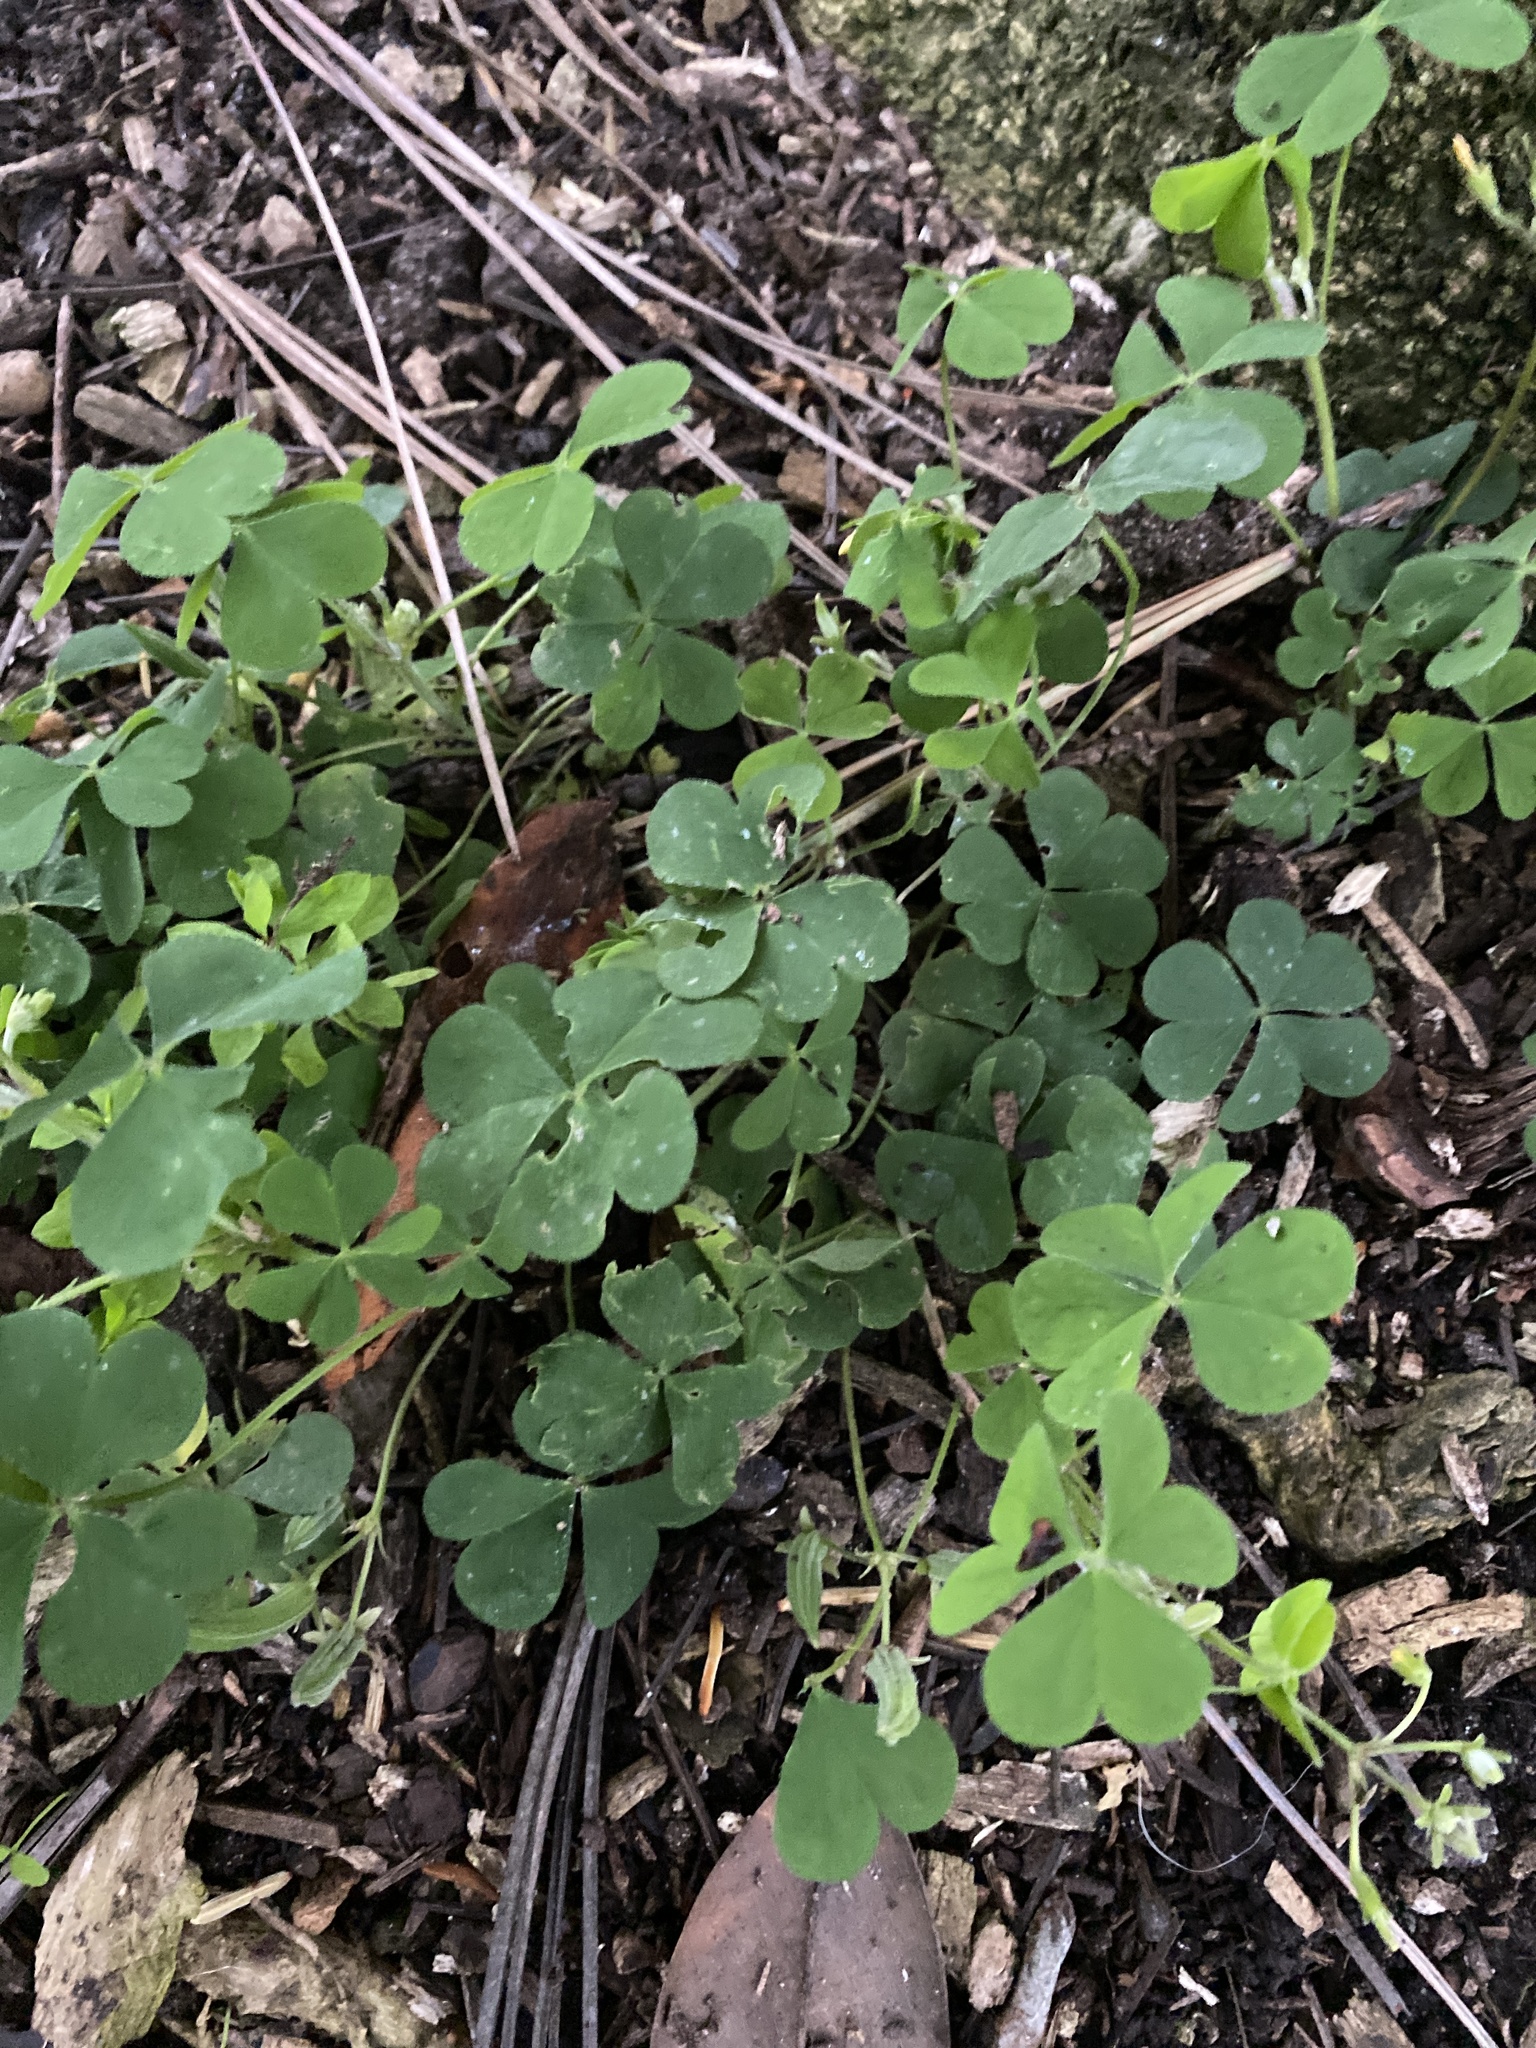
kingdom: Plantae
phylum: Tracheophyta
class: Magnoliopsida
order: Oxalidales
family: Oxalidaceae
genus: Oxalis
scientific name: Oxalis corniculata
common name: Procumbent yellow-sorrel
